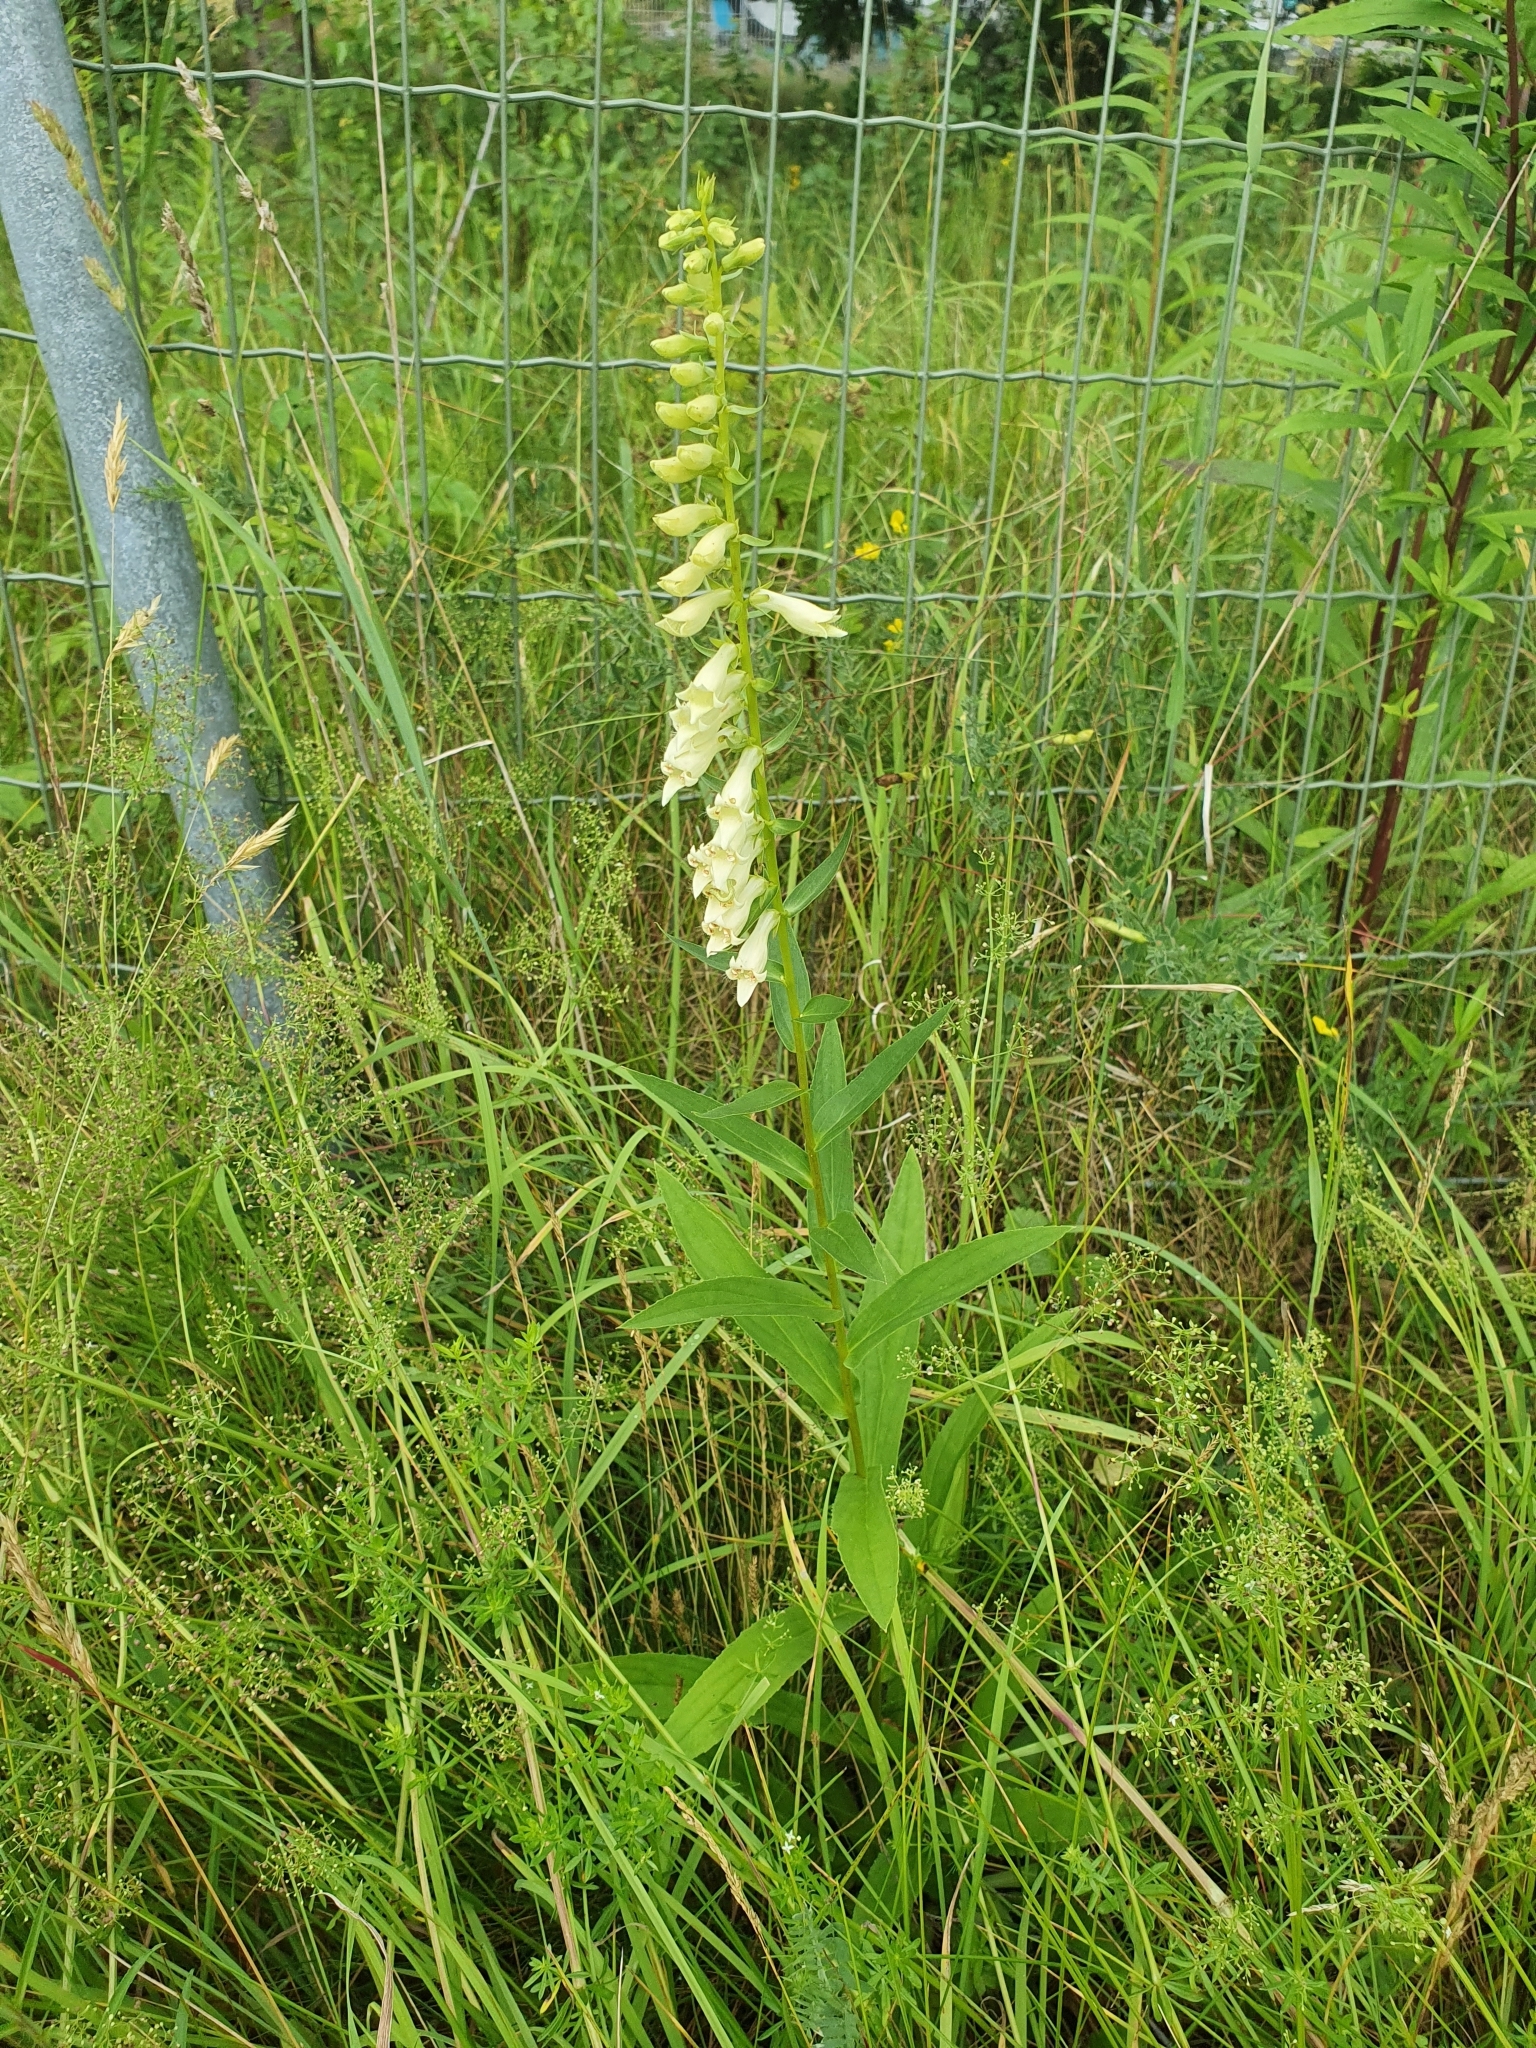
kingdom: Plantae
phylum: Tracheophyta
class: Magnoliopsida
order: Lamiales
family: Plantaginaceae
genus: Digitalis
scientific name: Digitalis lutea
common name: Straw foxglove
